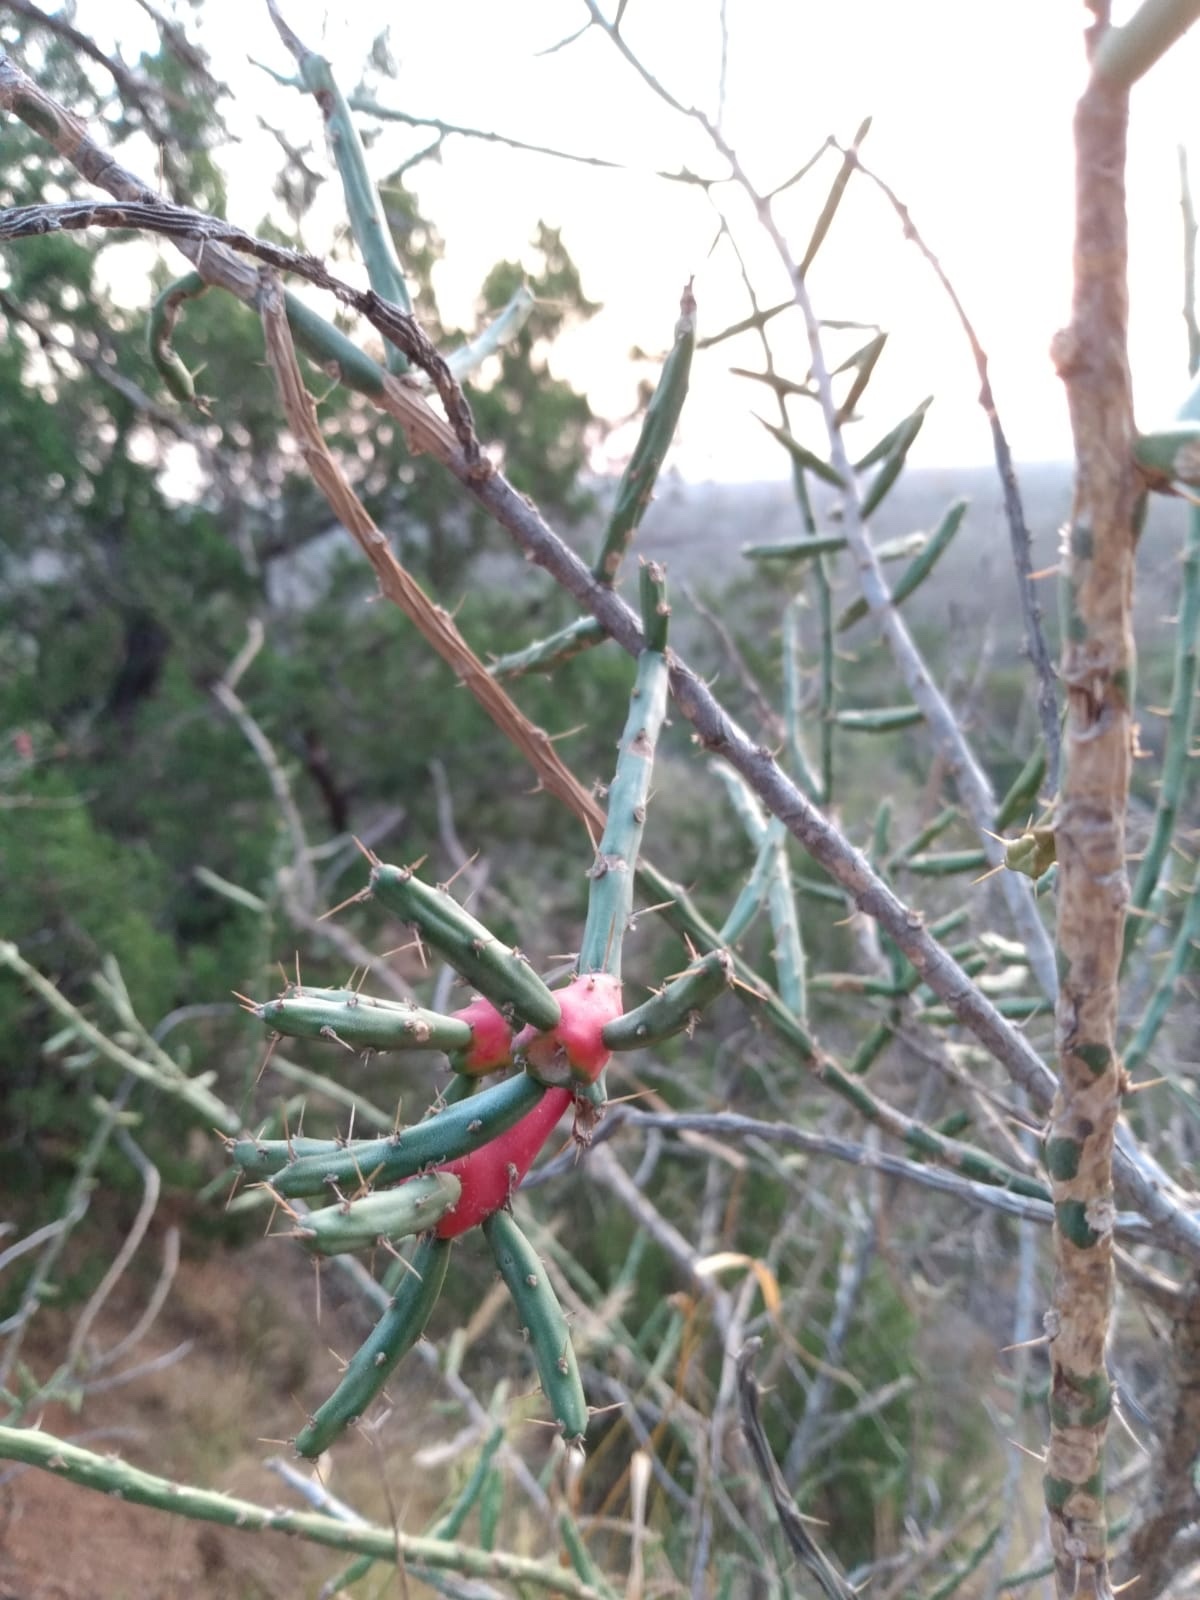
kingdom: Plantae
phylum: Tracheophyta
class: Magnoliopsida
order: Caryophyllales
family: Cactaceae
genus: Cylindropuntia
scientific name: Cylindropuntia leptocaulis
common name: Christmas cactus
